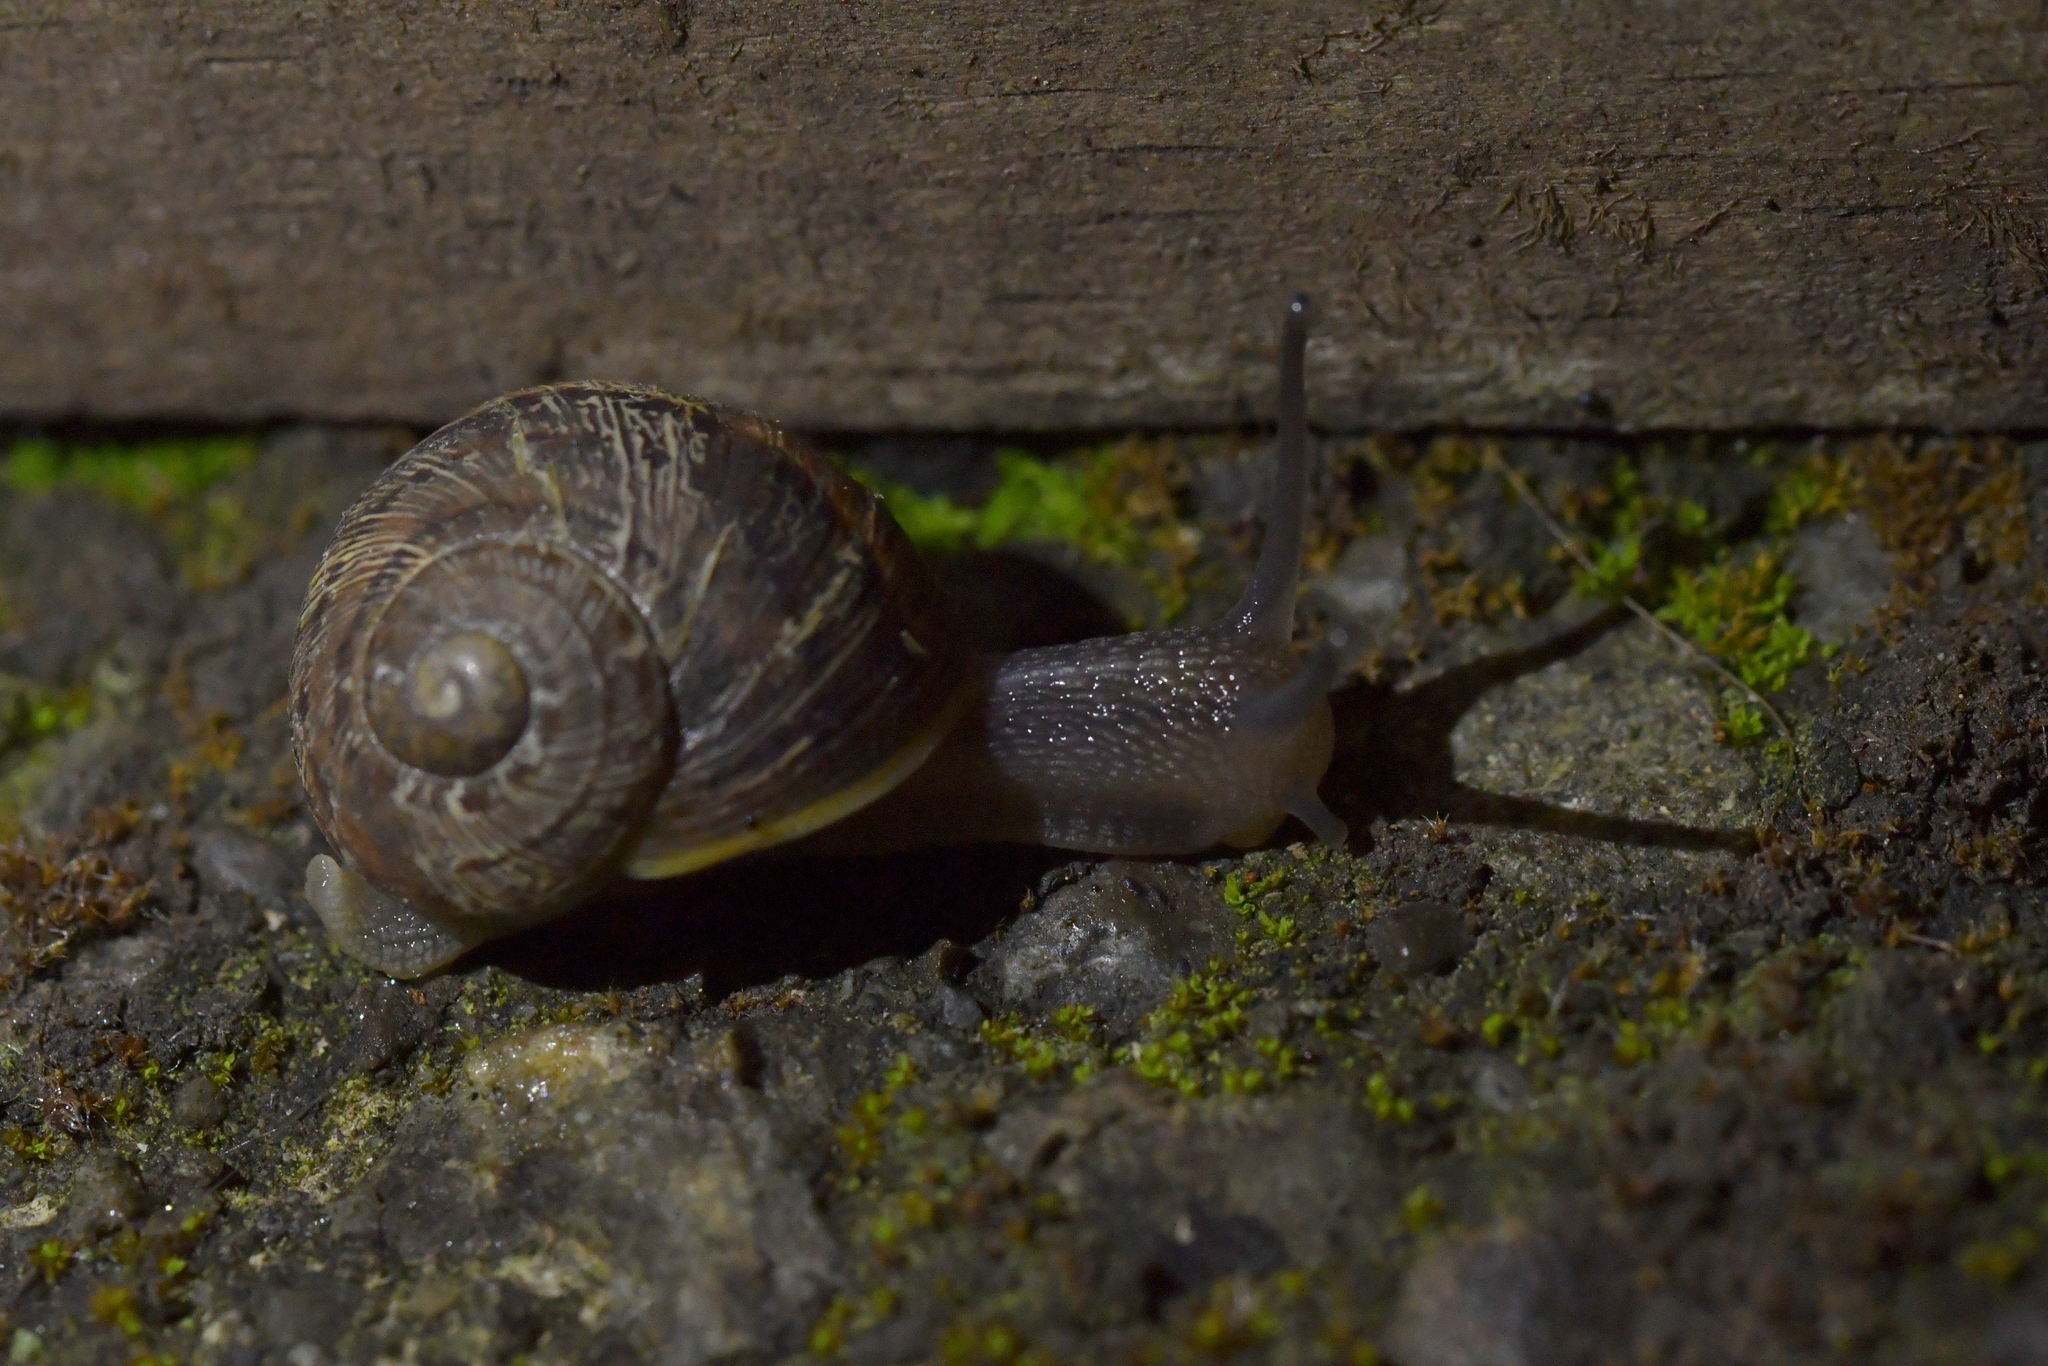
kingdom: Animalia
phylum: Mollusca
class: Gastropoda
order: Stylommatophora
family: Helicidae
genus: Cornu
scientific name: Cornu aspersum
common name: Brown garden snail
